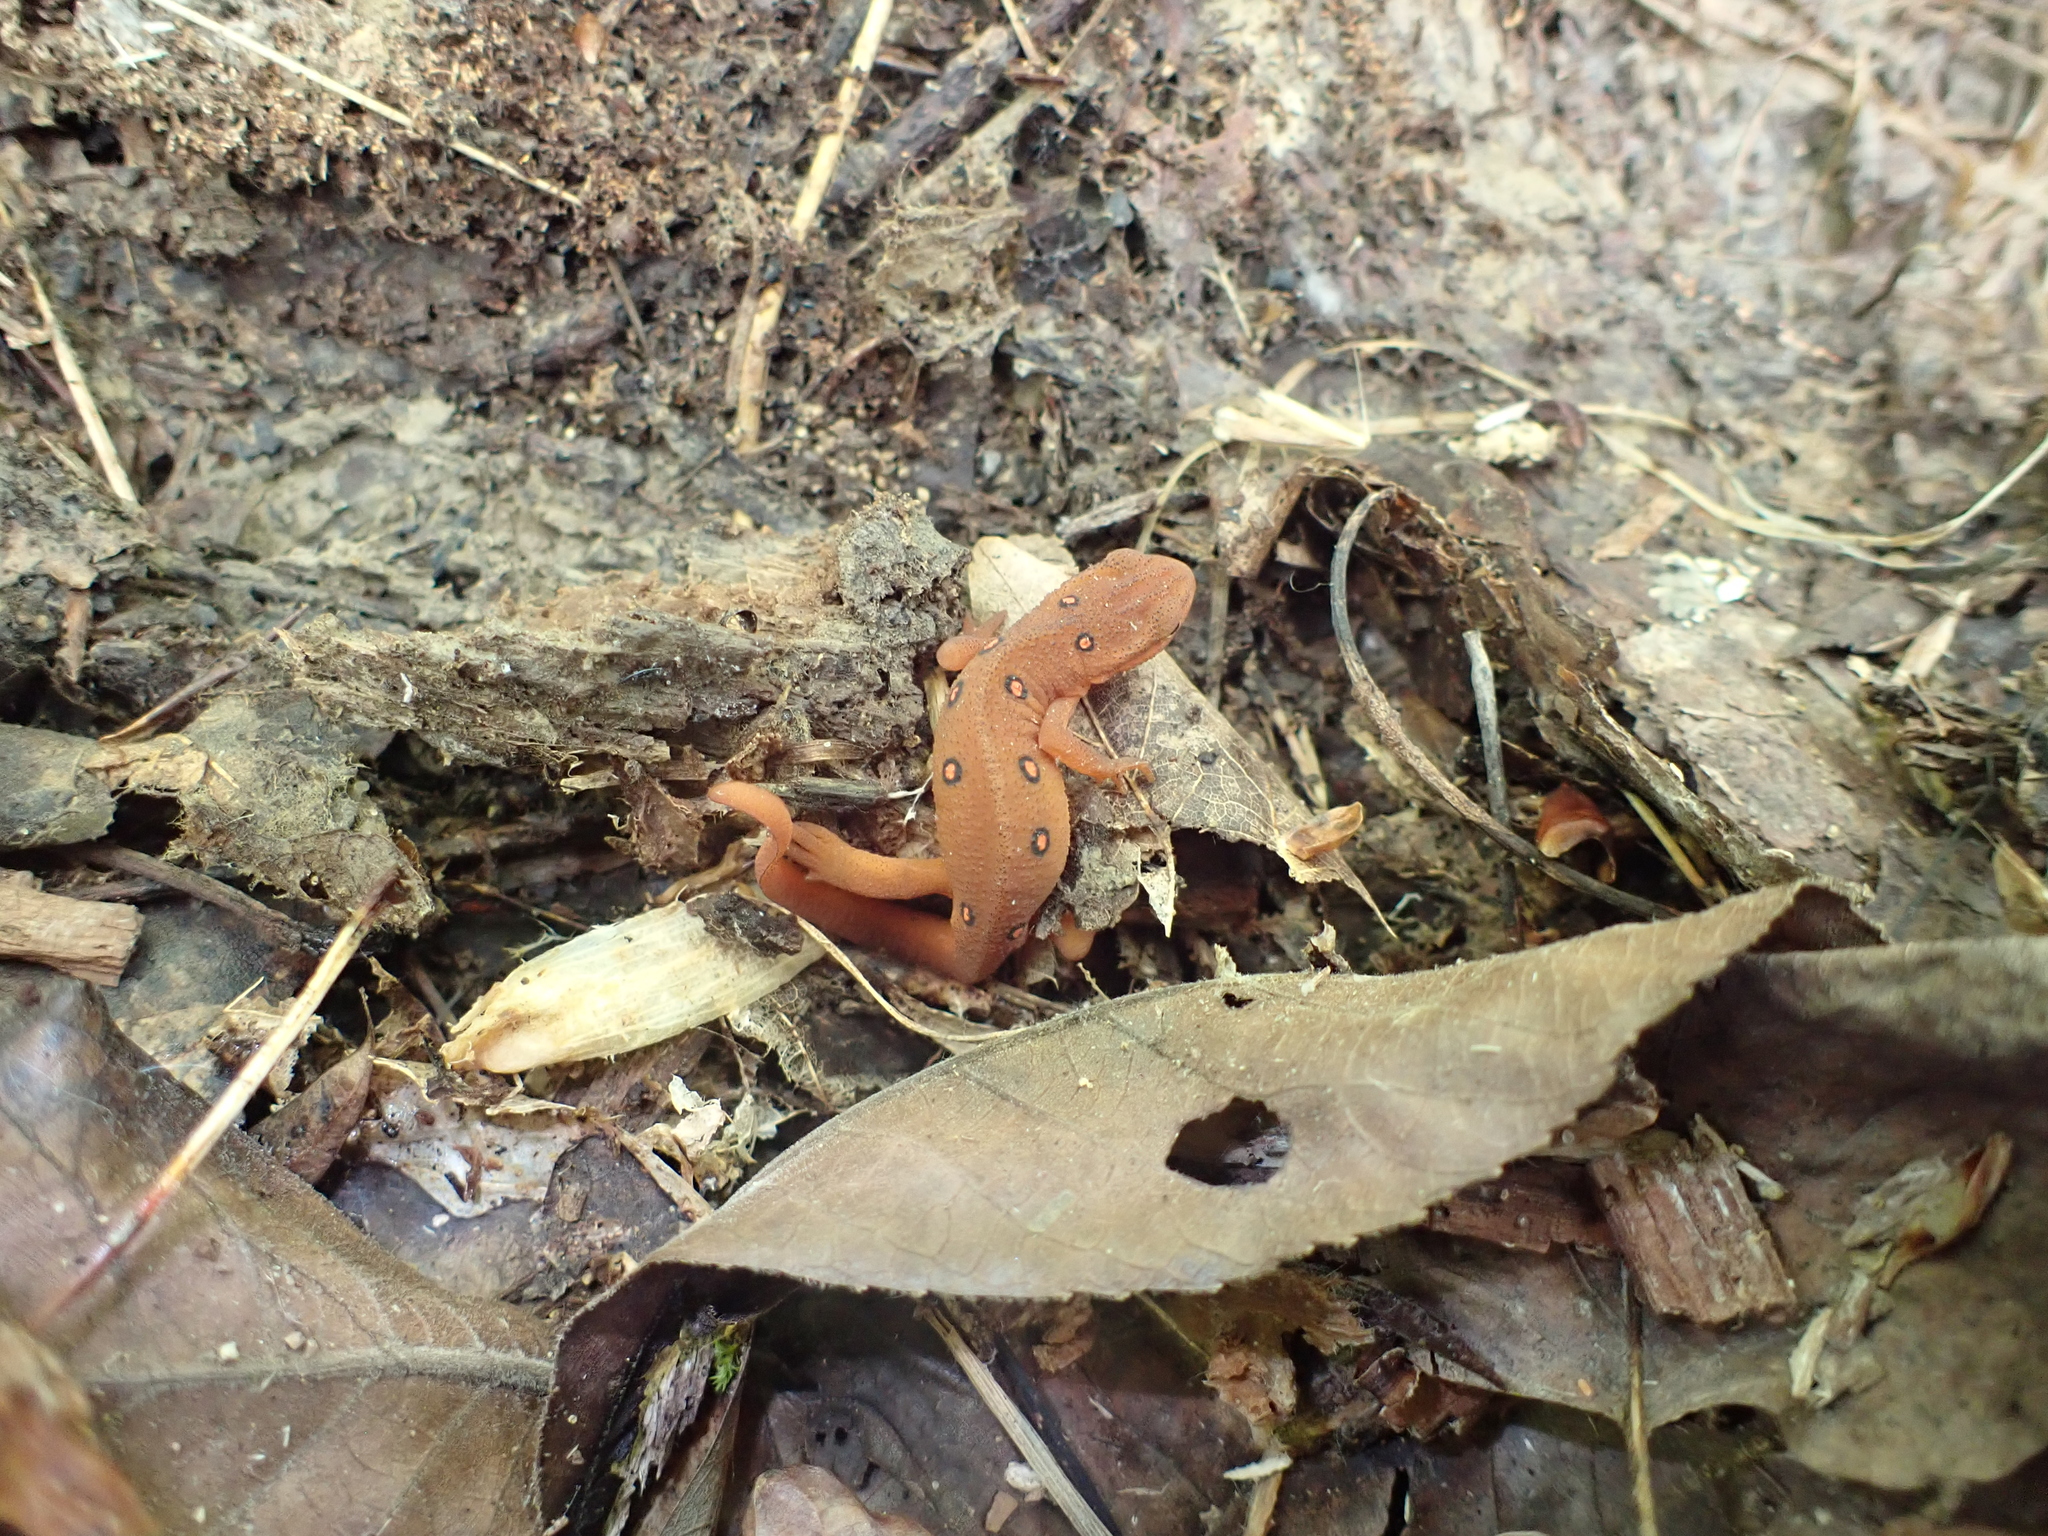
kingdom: Animalia
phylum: Chordata
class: Amphibia
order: Caudata
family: Salamandridae
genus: Notophthalmus
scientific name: Notophthalmus viridescens
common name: Eastern newt
